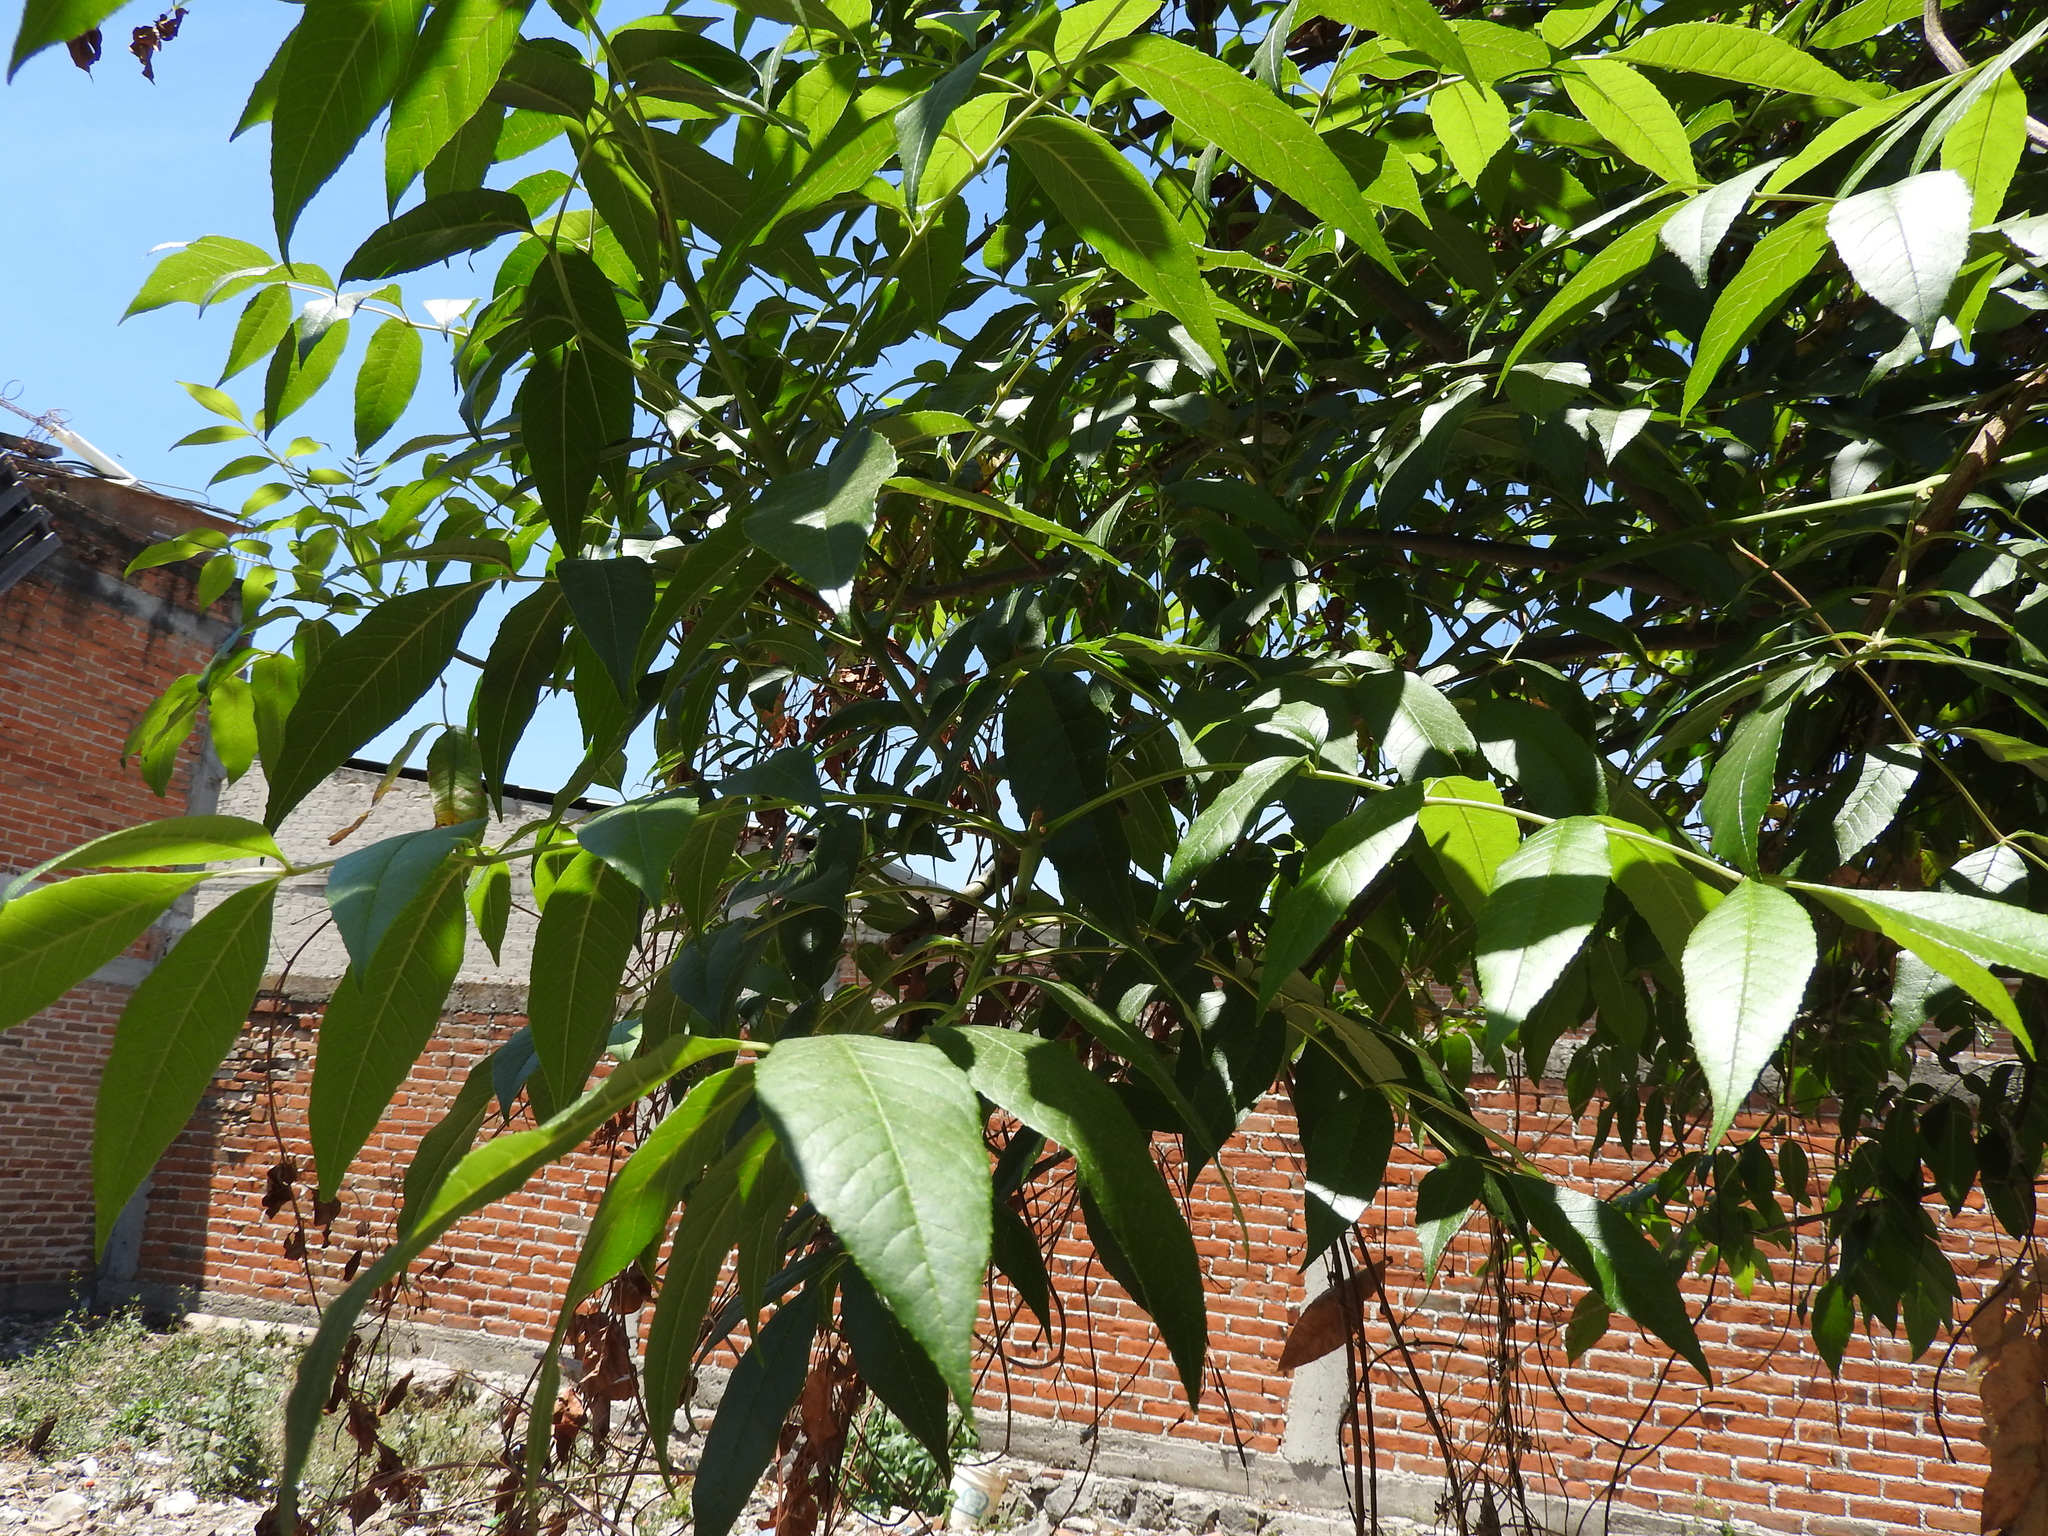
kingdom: Plantae
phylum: Tracheophyta
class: Magnoliopsida
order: Lamiales
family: Oleaceae
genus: Fraxinus
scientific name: Fraxinus uhdei
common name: Shamel ash
